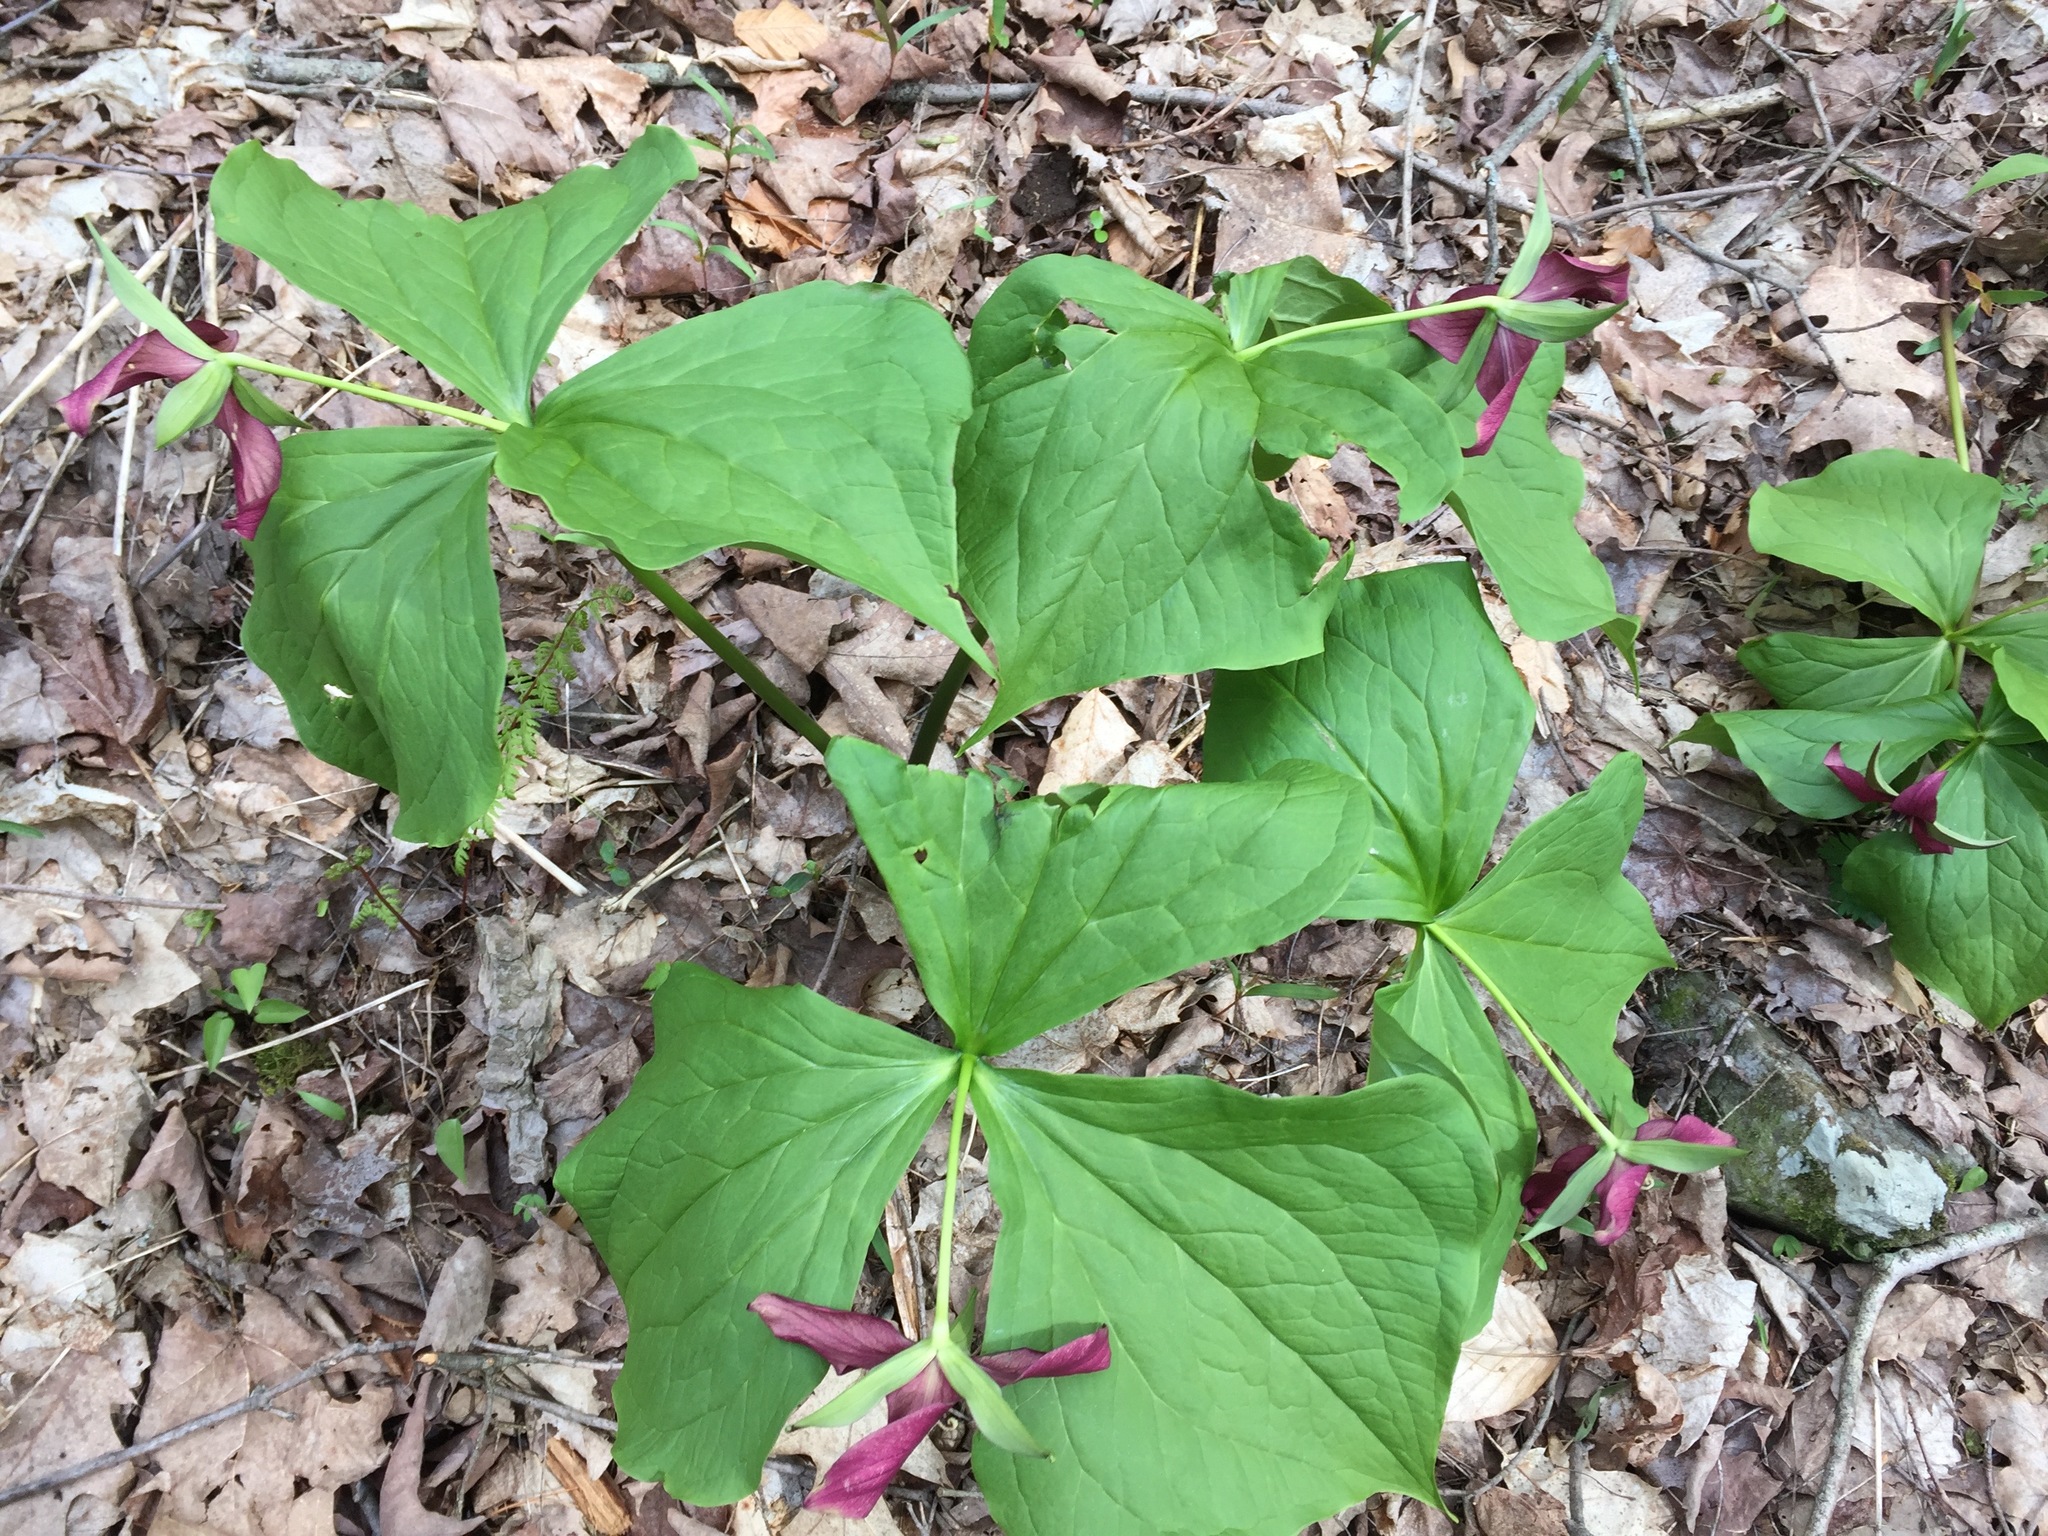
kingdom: Plantae
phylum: Tracheophyta
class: Liliopsida
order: Liliales
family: Melanthiaceae
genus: Trillium
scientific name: Trillium erectum
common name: Purple trillium
